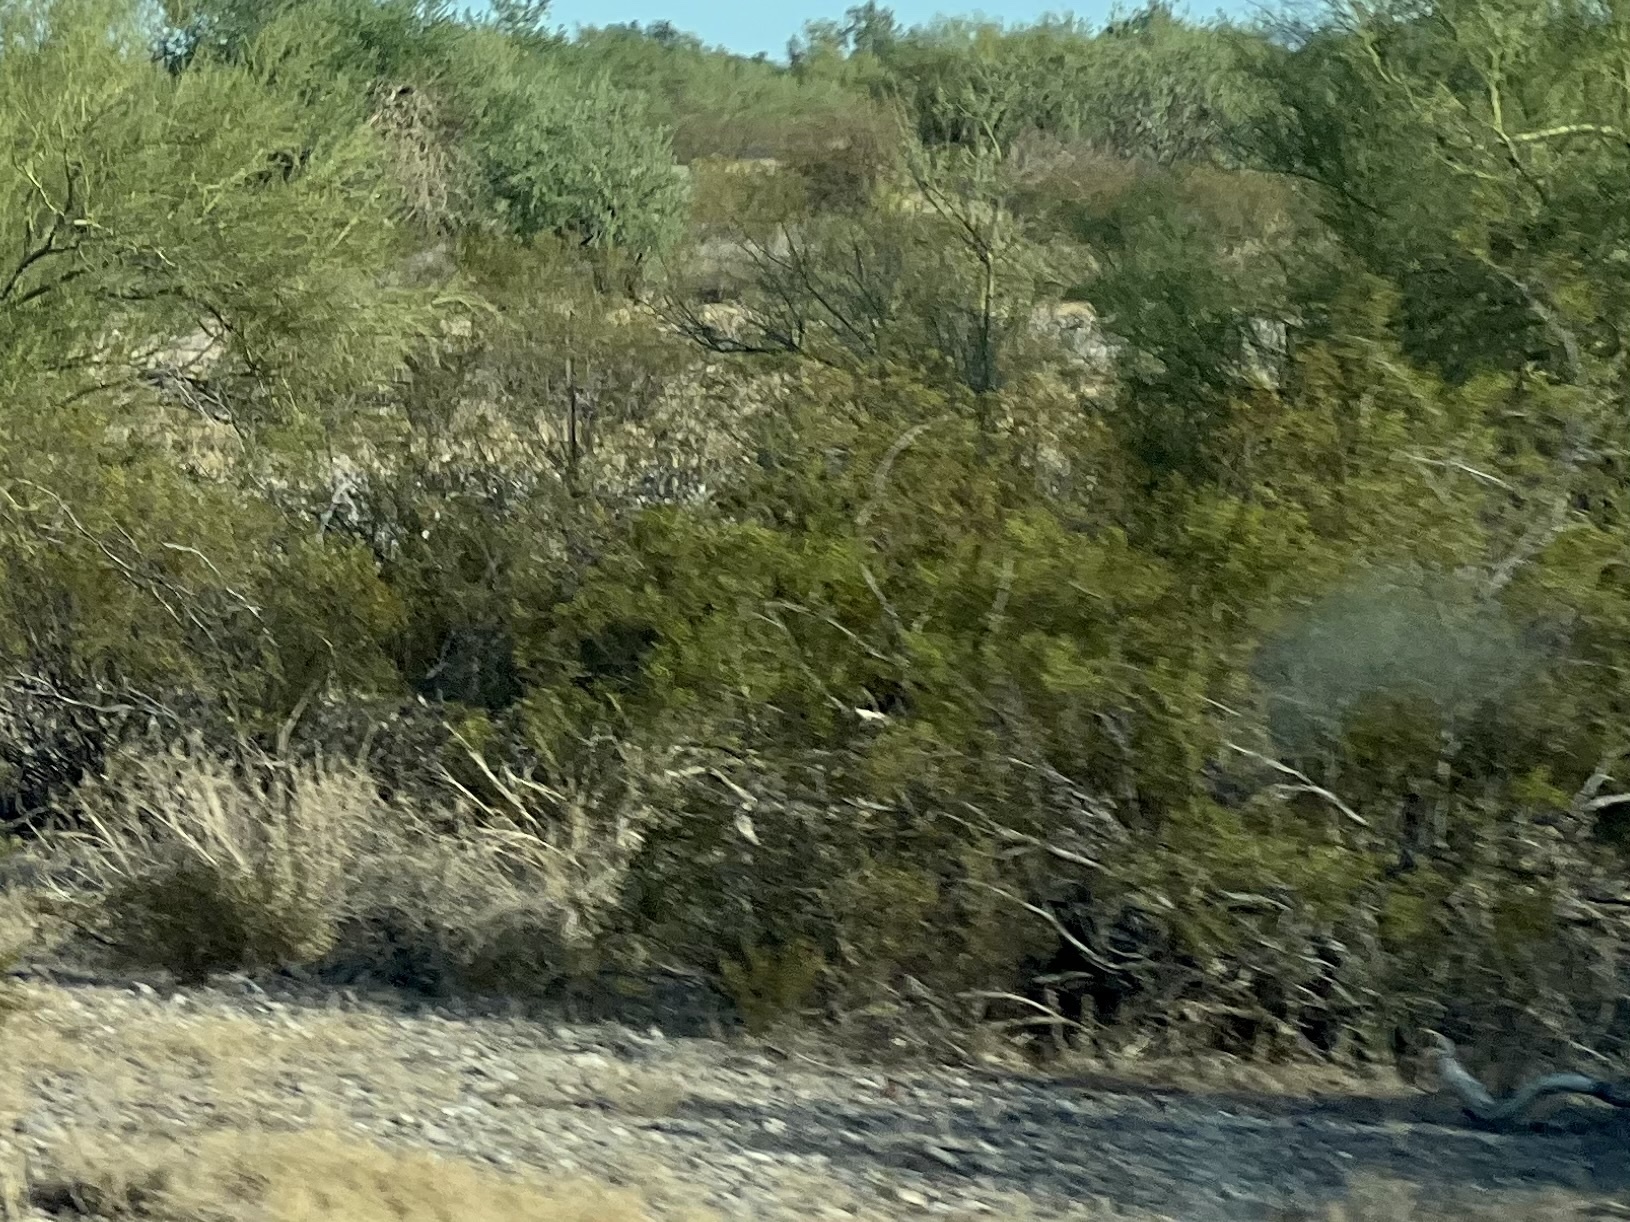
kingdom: Plantae
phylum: Tracheophyta
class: Magnoliopsida
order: Zygophyllales
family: Zygophyllaceae
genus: Larrea
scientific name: Larrea tridentata
